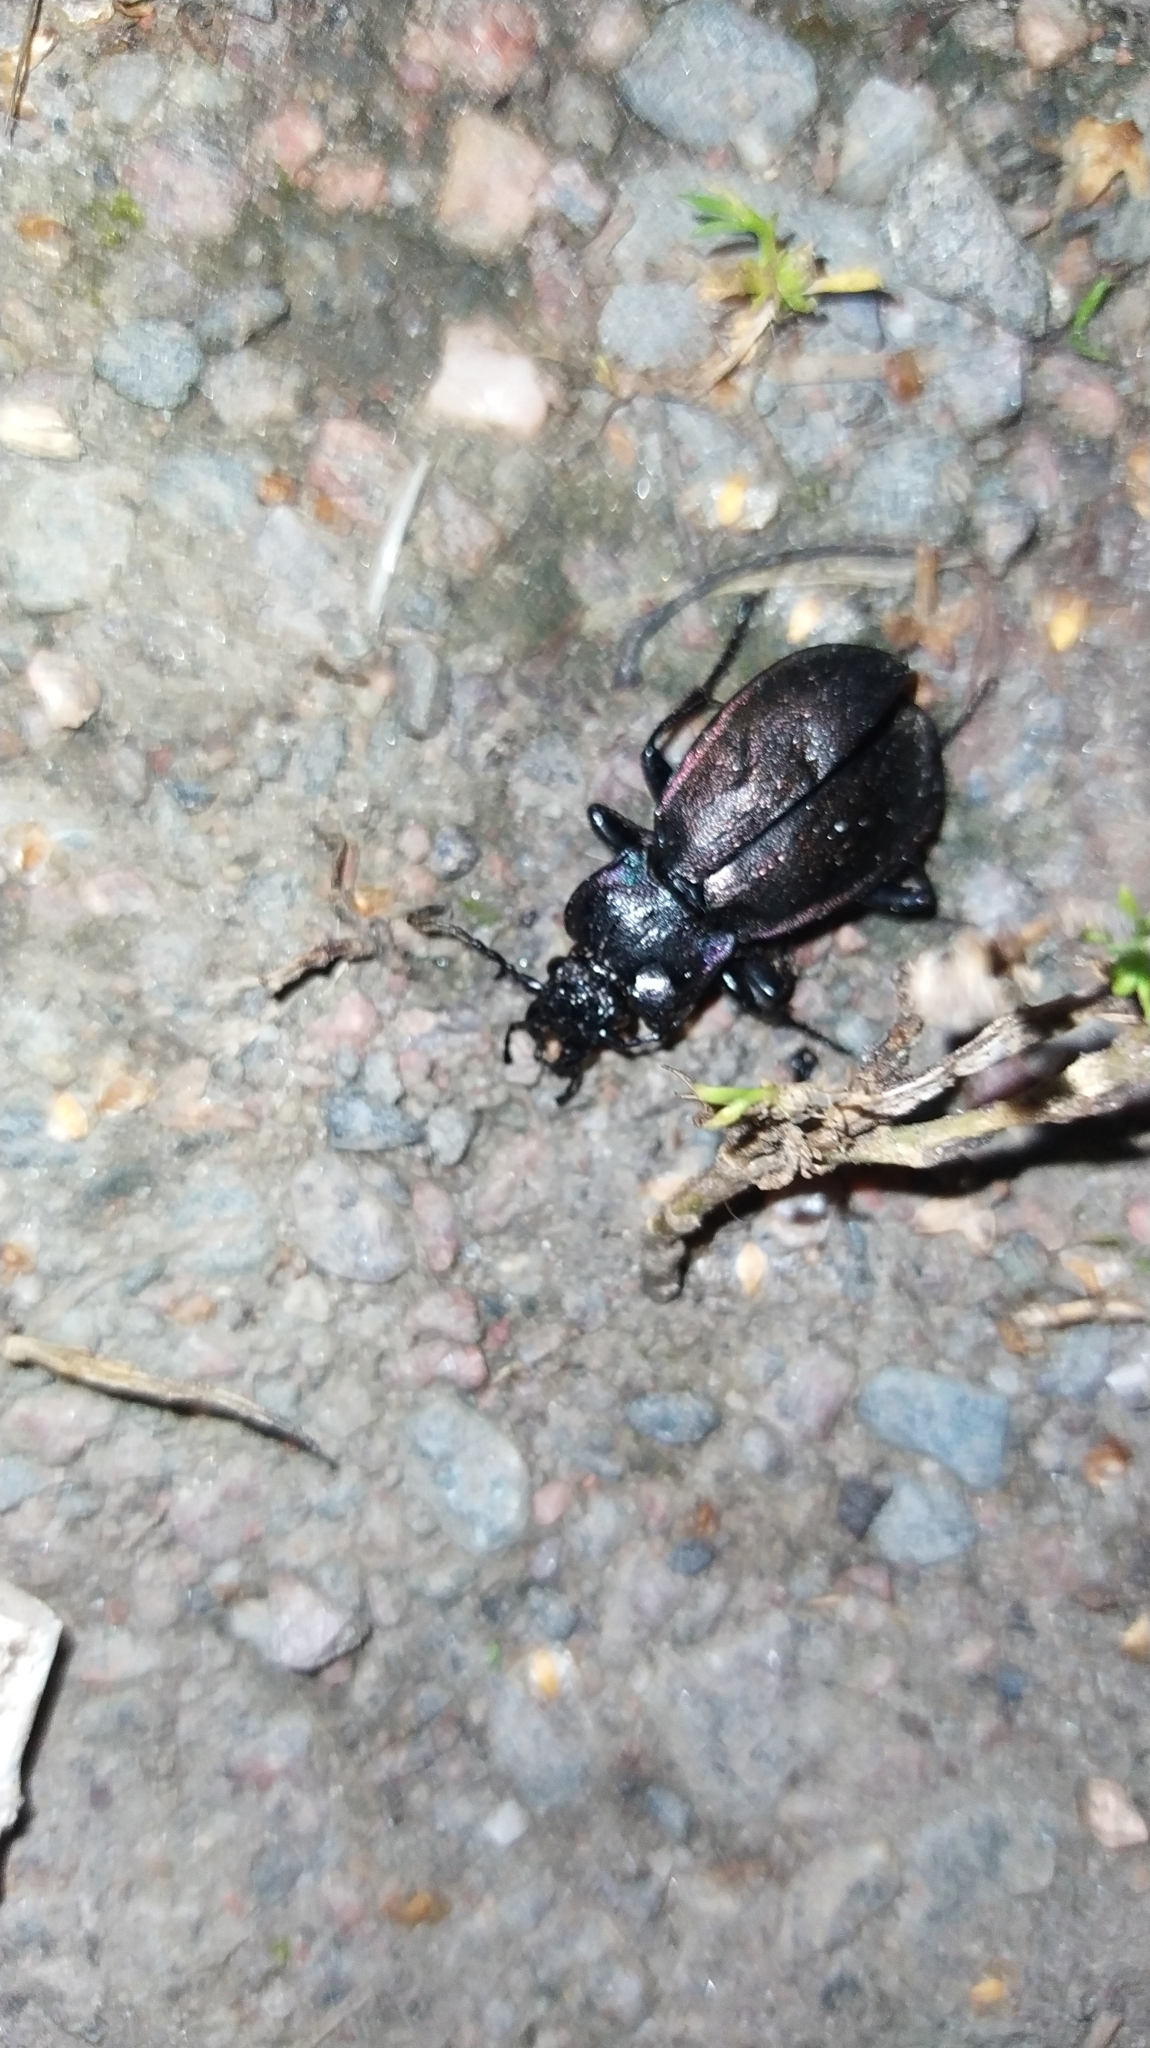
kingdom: Animalia
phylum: Arthropoda
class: Insecta
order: Coleoptera
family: Carabidae
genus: Carabus
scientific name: Carabus nemoralis
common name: European ground beetle
